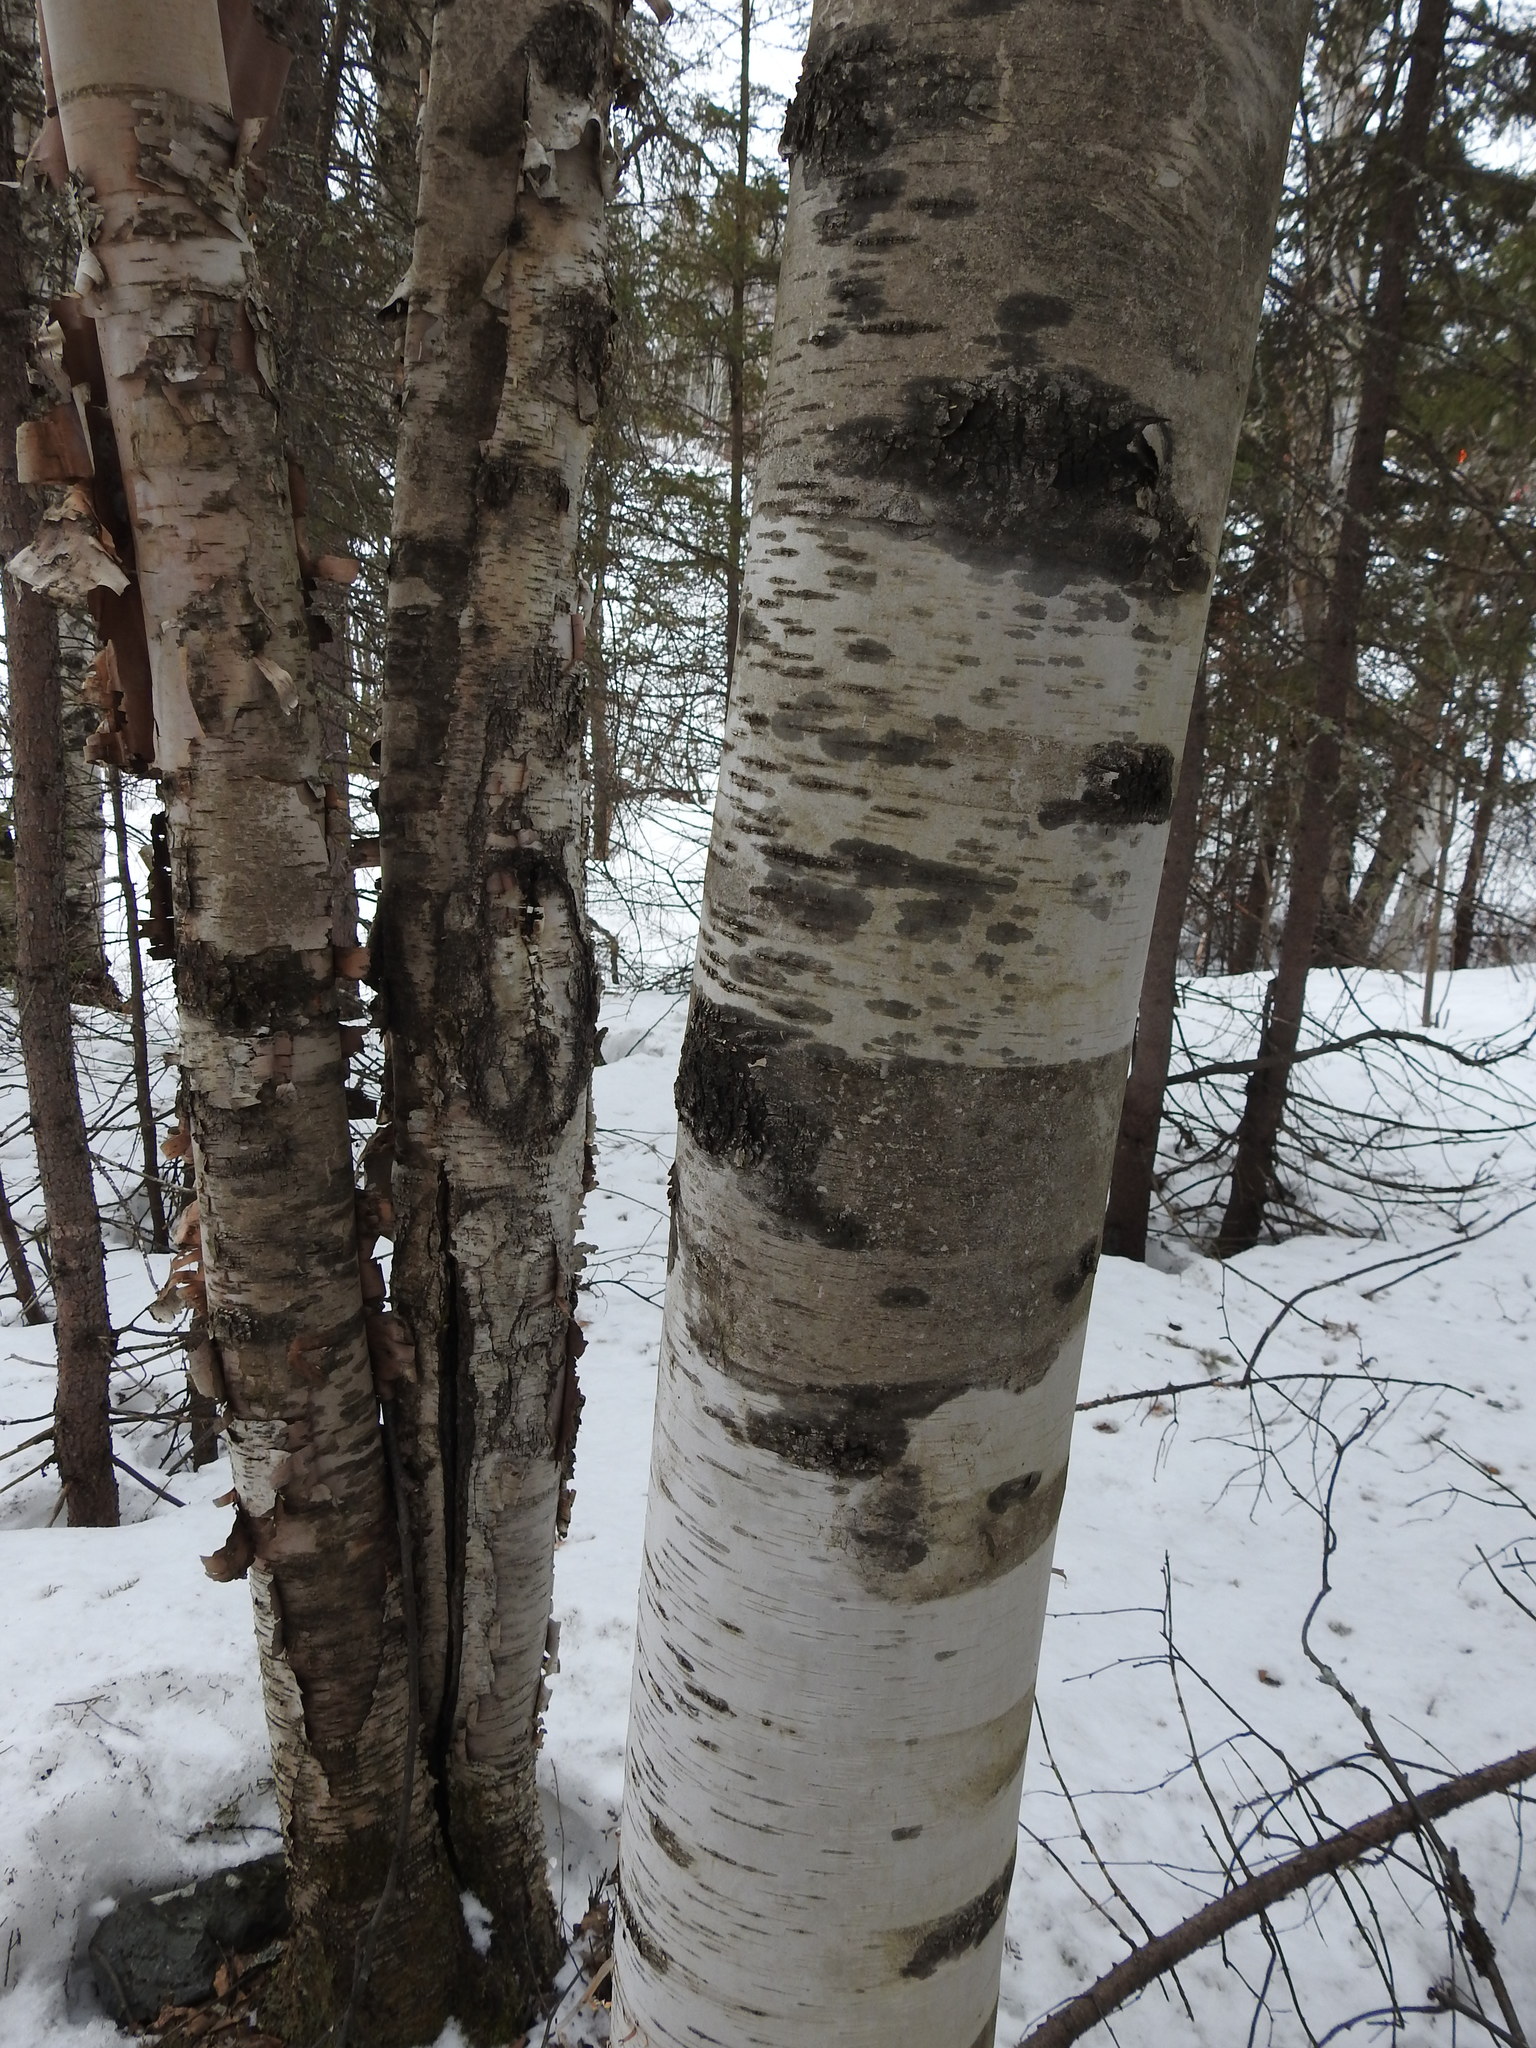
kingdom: Plantae
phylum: Tracheophyta
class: Magnoliopsida
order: Fagales
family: Betulaceae
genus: Betula
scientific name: Betula papyrifera
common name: Paper birch
